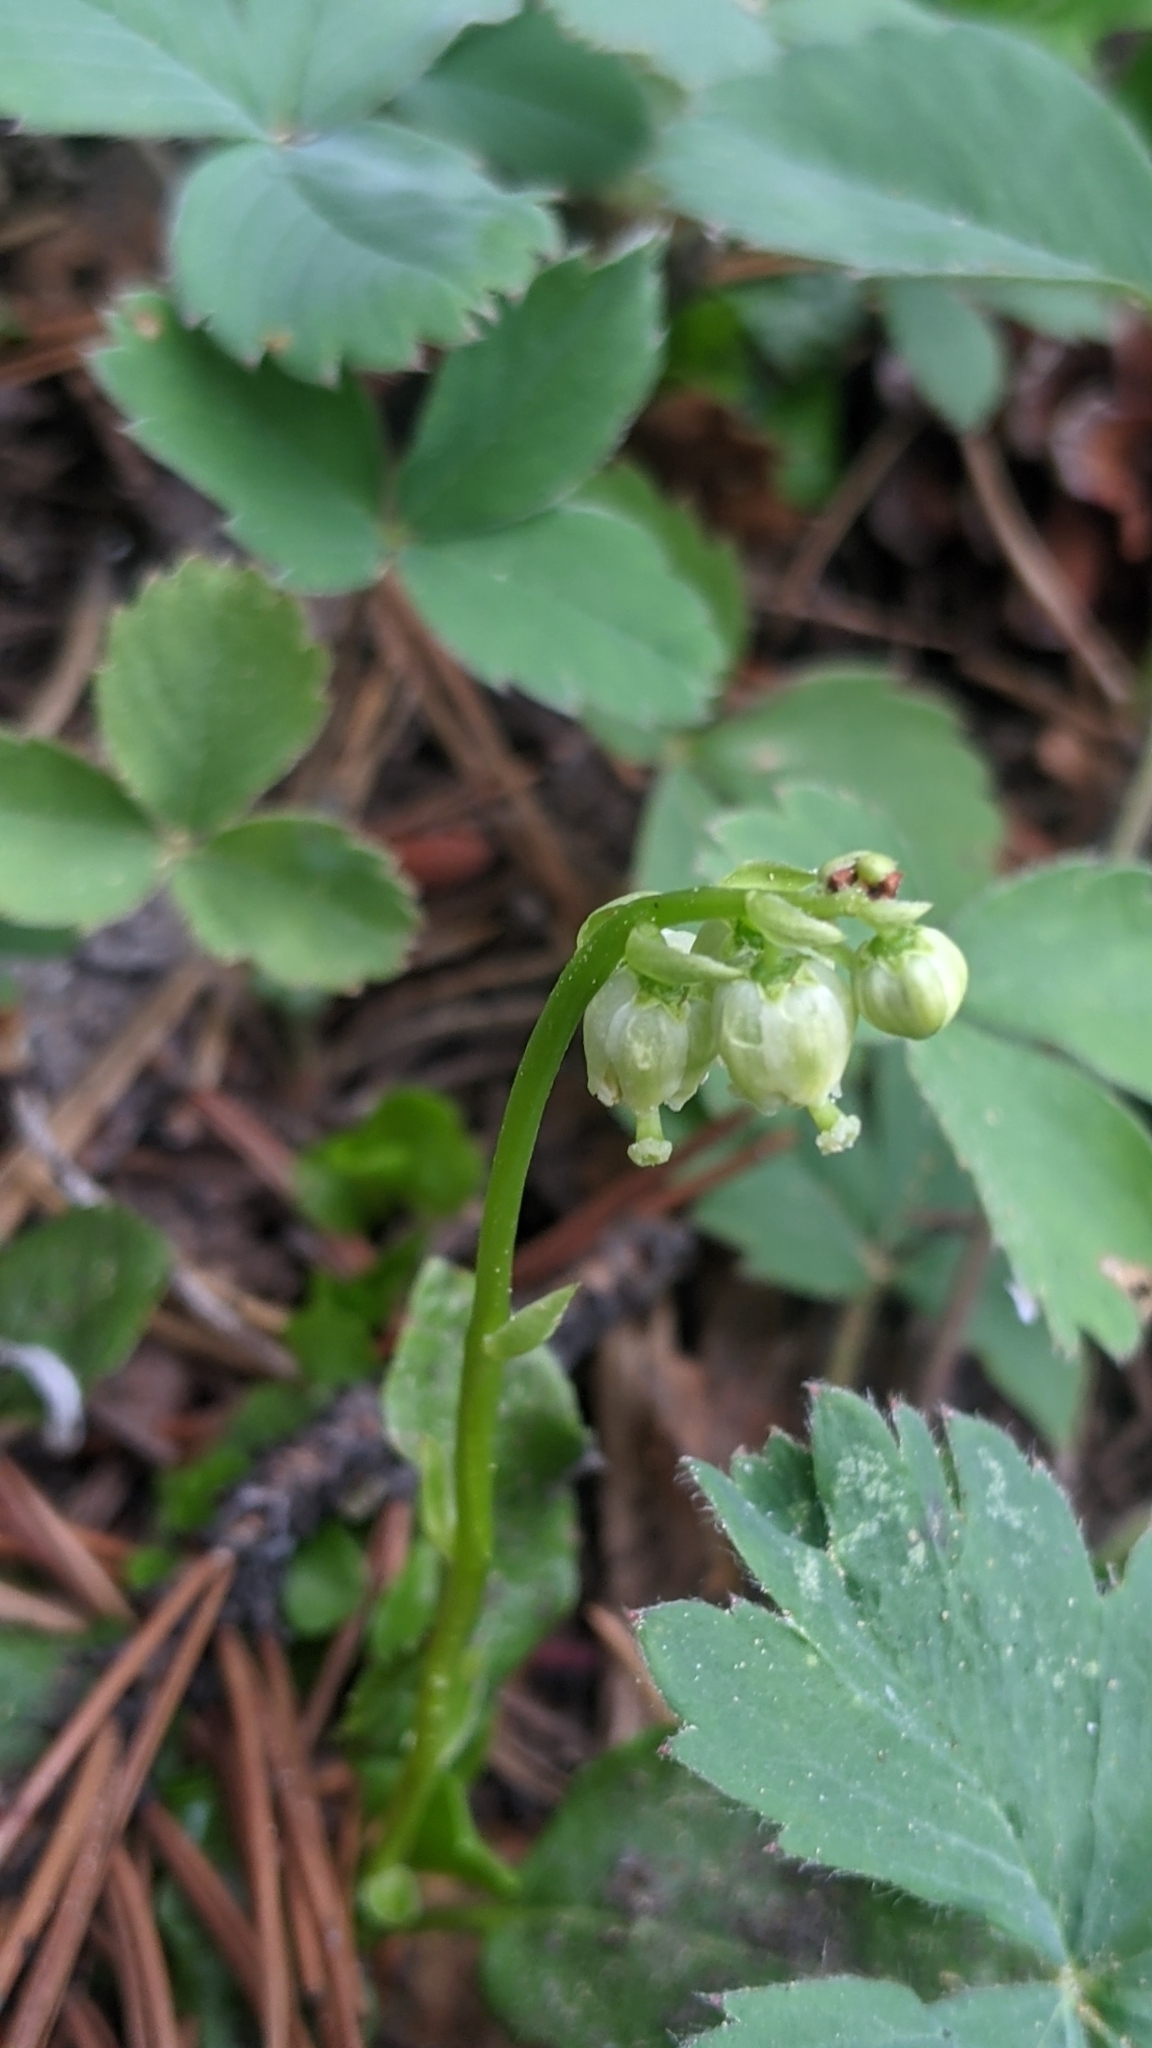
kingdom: Plantae
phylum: Tracheophyta
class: Magnoliopsida
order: Ericales
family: Ericaceae
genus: Orthilia
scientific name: Orthilia secunda
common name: One-sided orthilia
